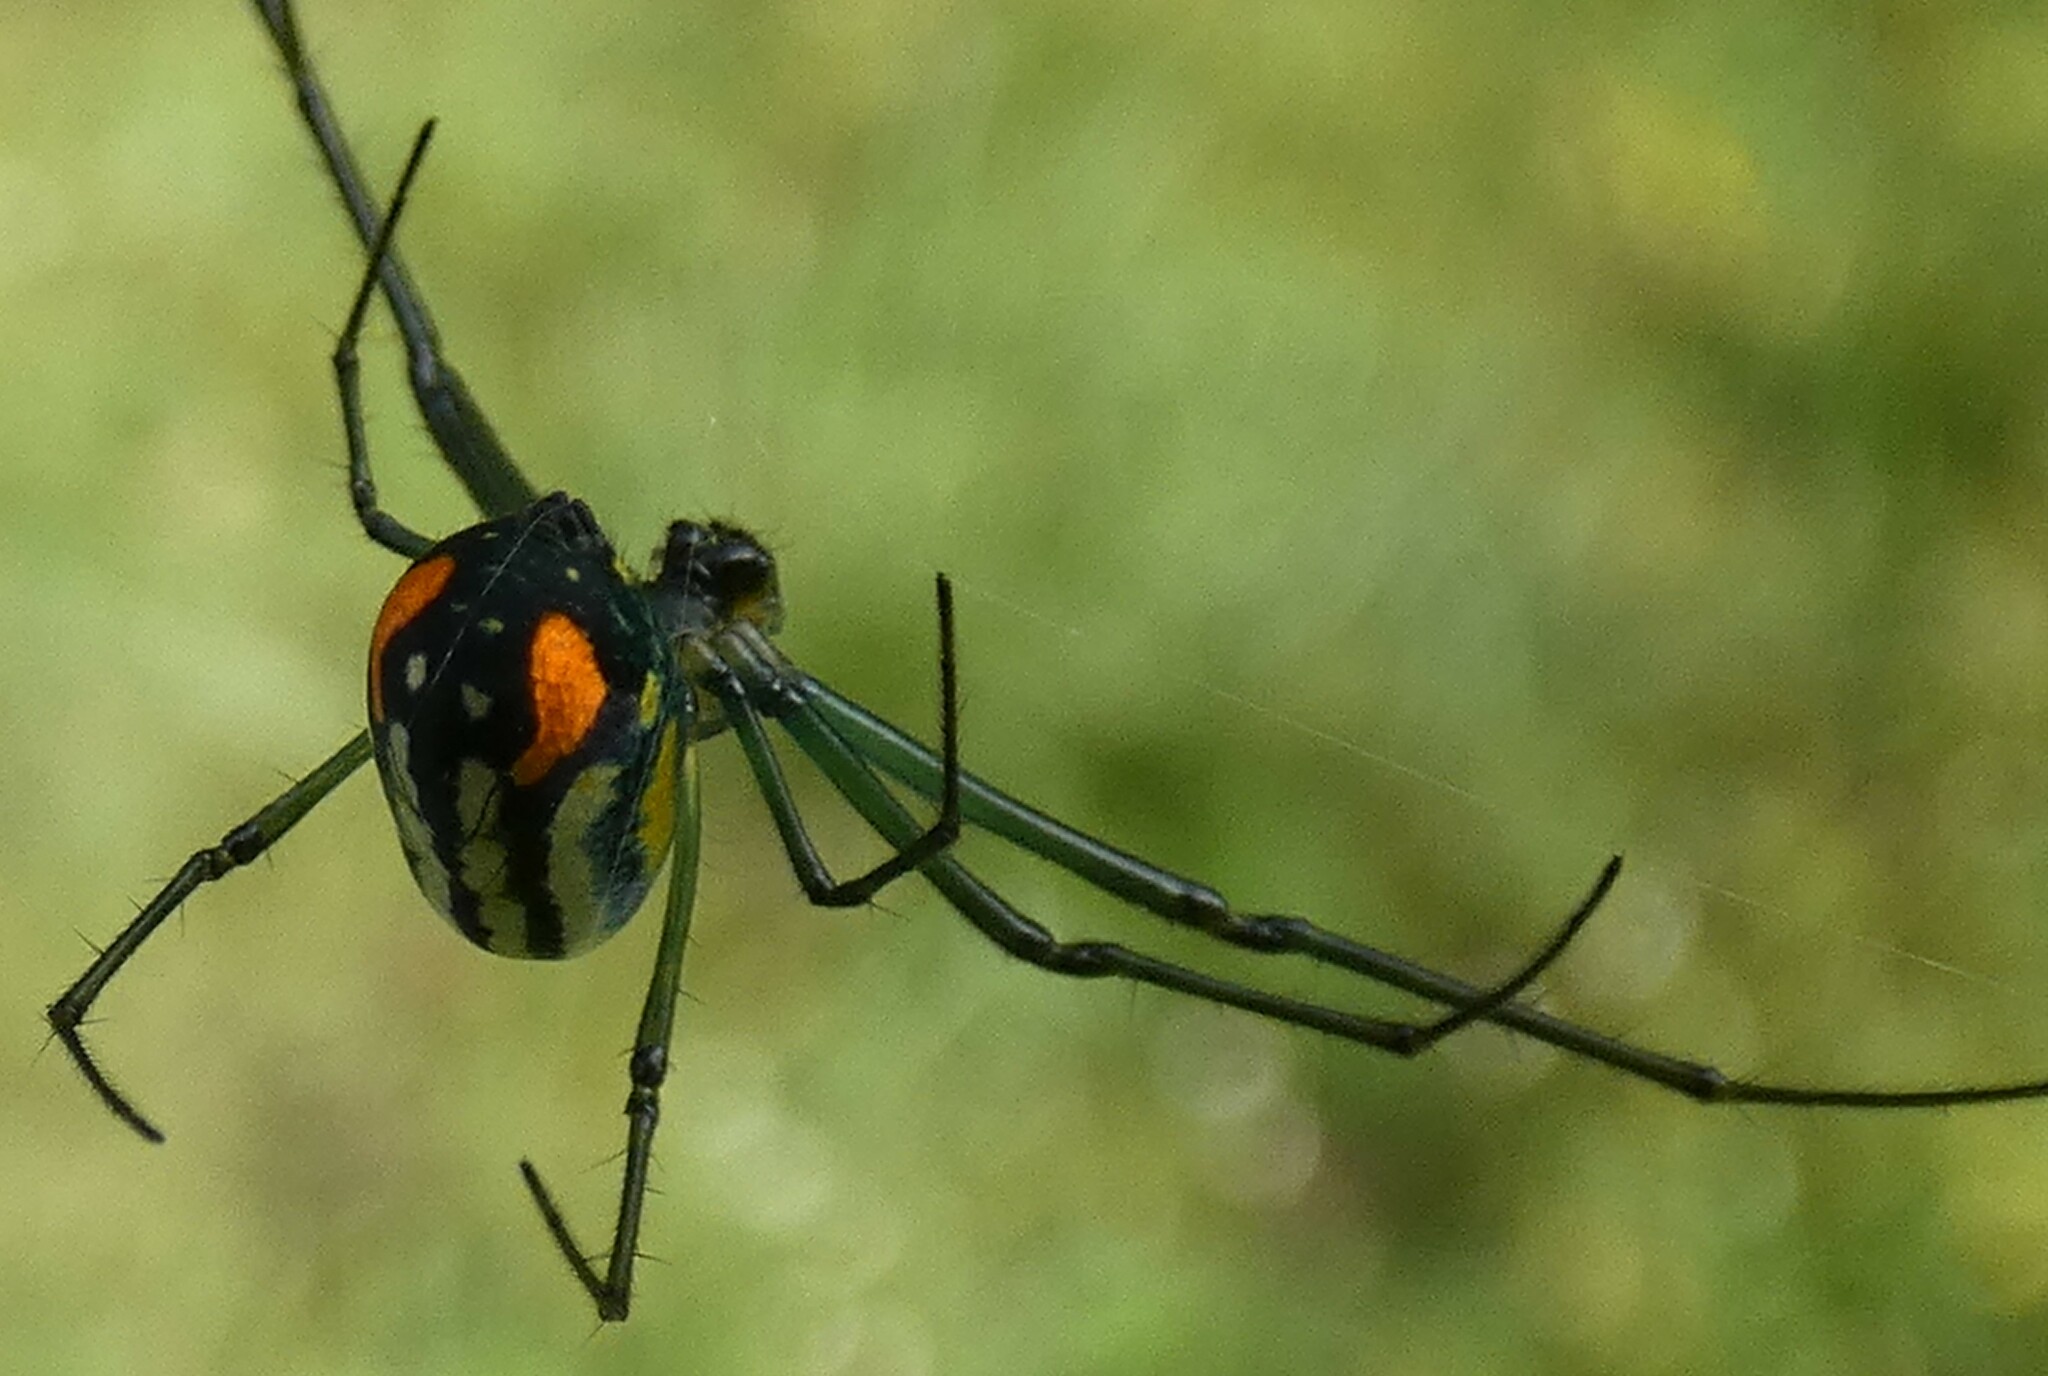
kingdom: Animalia
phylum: Arthropoda
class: Arachnida
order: Araneae
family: Tetragnathidae
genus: Leucauge
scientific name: Leucauge argyrobapta
